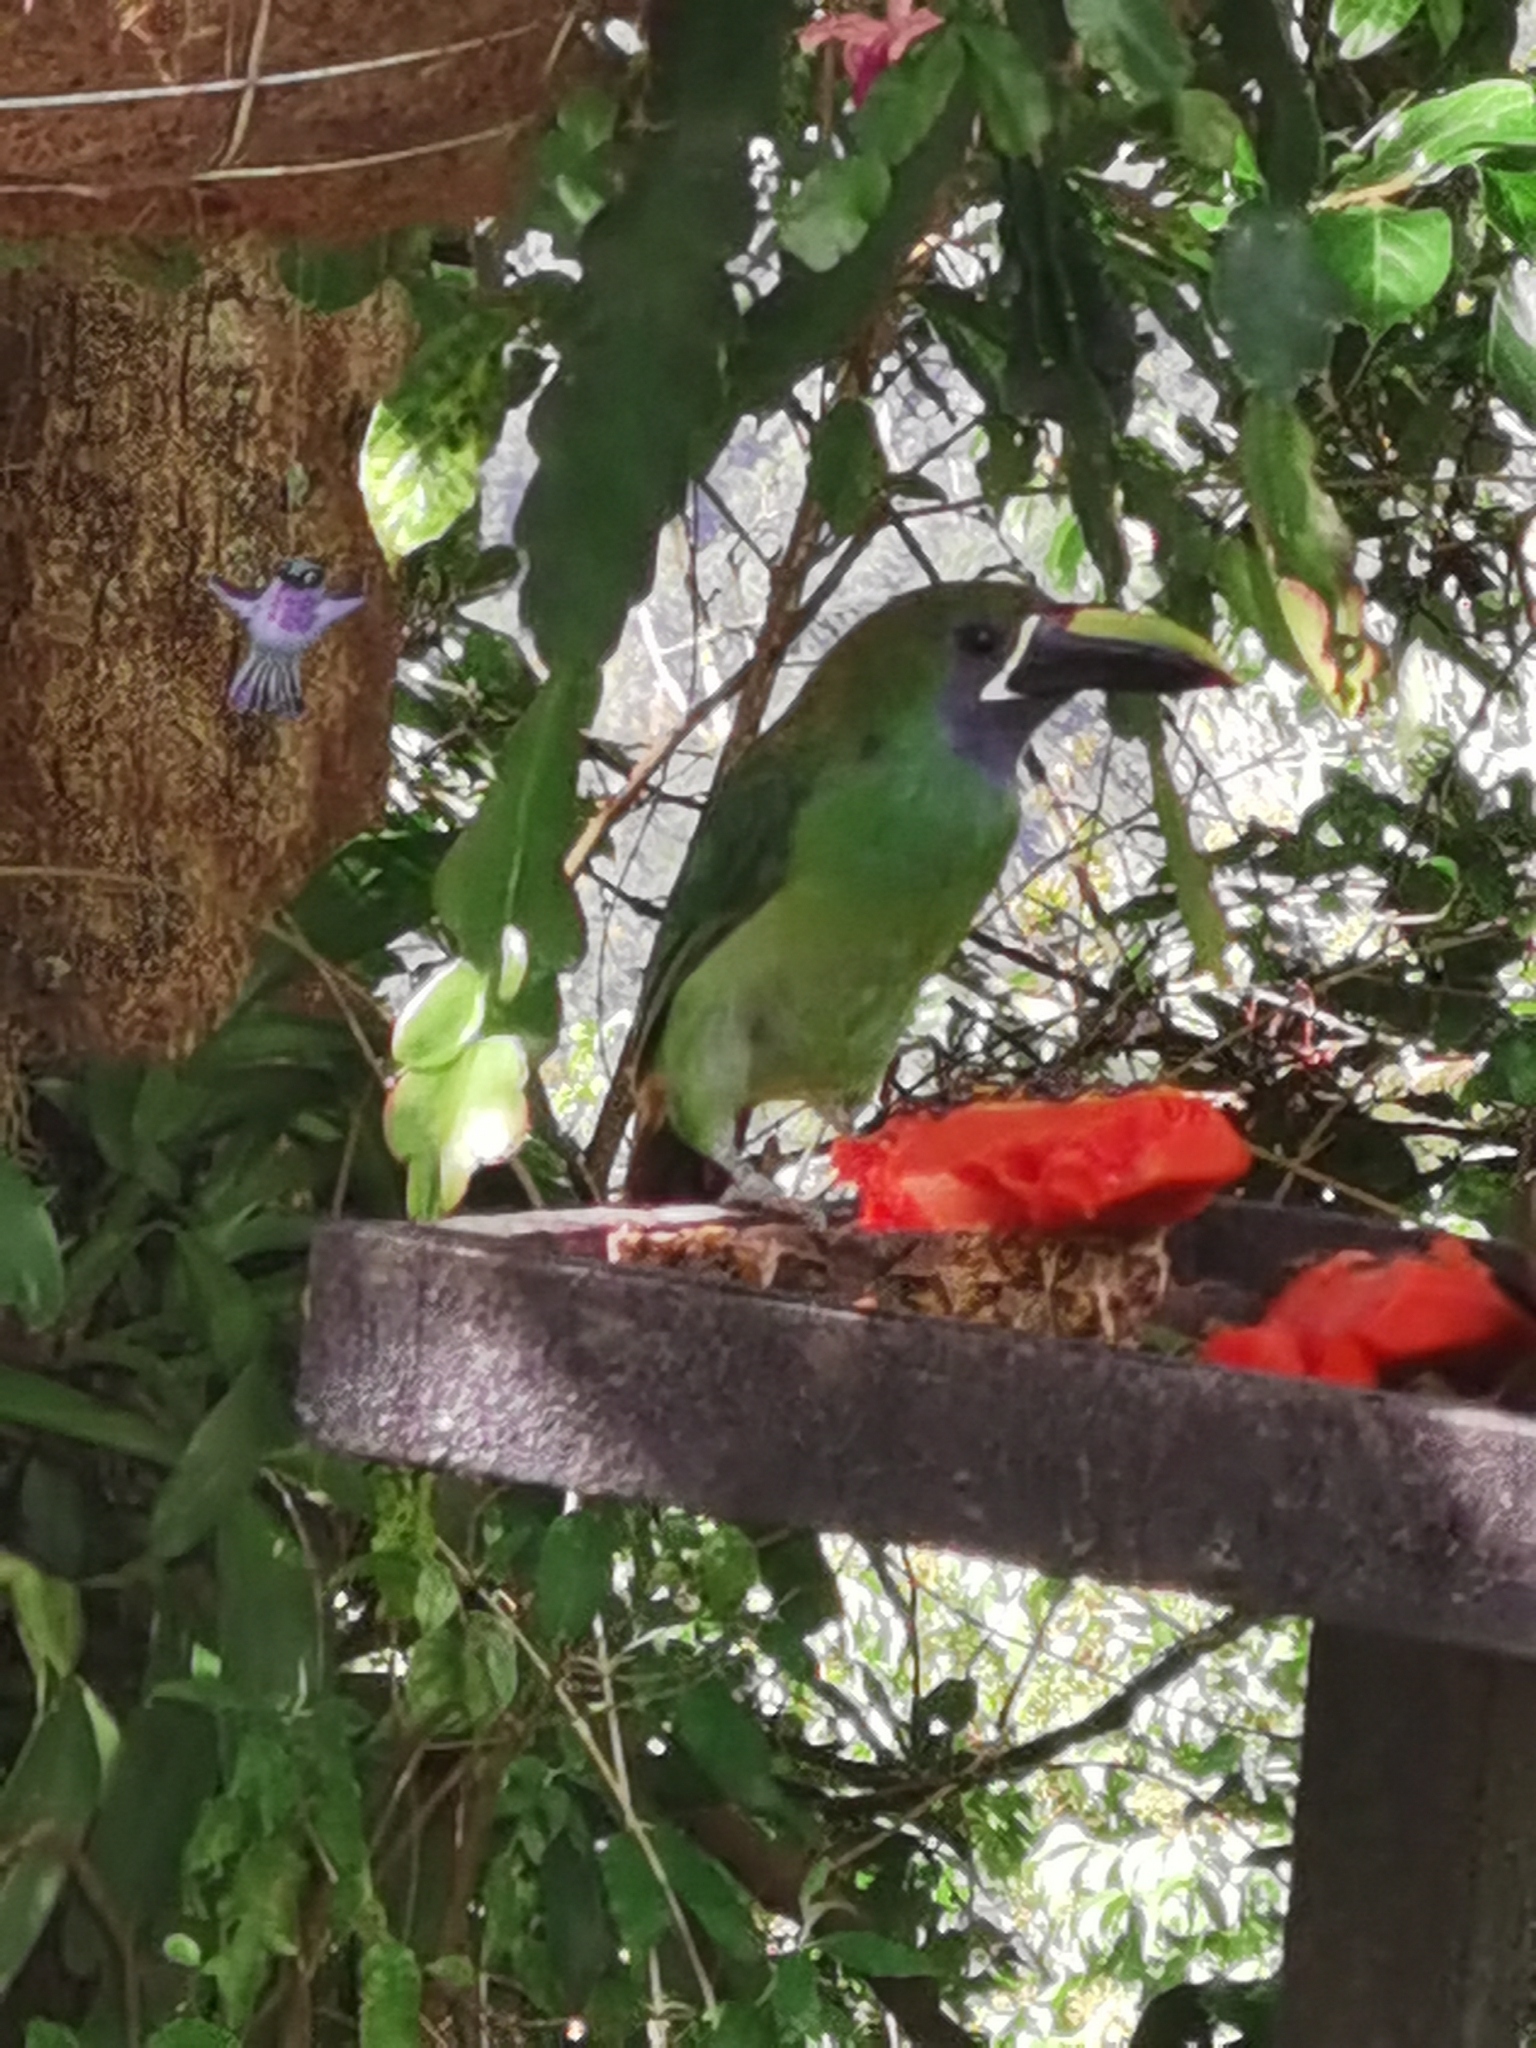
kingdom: Animalia
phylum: Chordata
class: Aves
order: Piciformes
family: Ramphastidae
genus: Aulacorhynchus
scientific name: Aulacorhynchus prasinus
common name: Emerald toucanet
